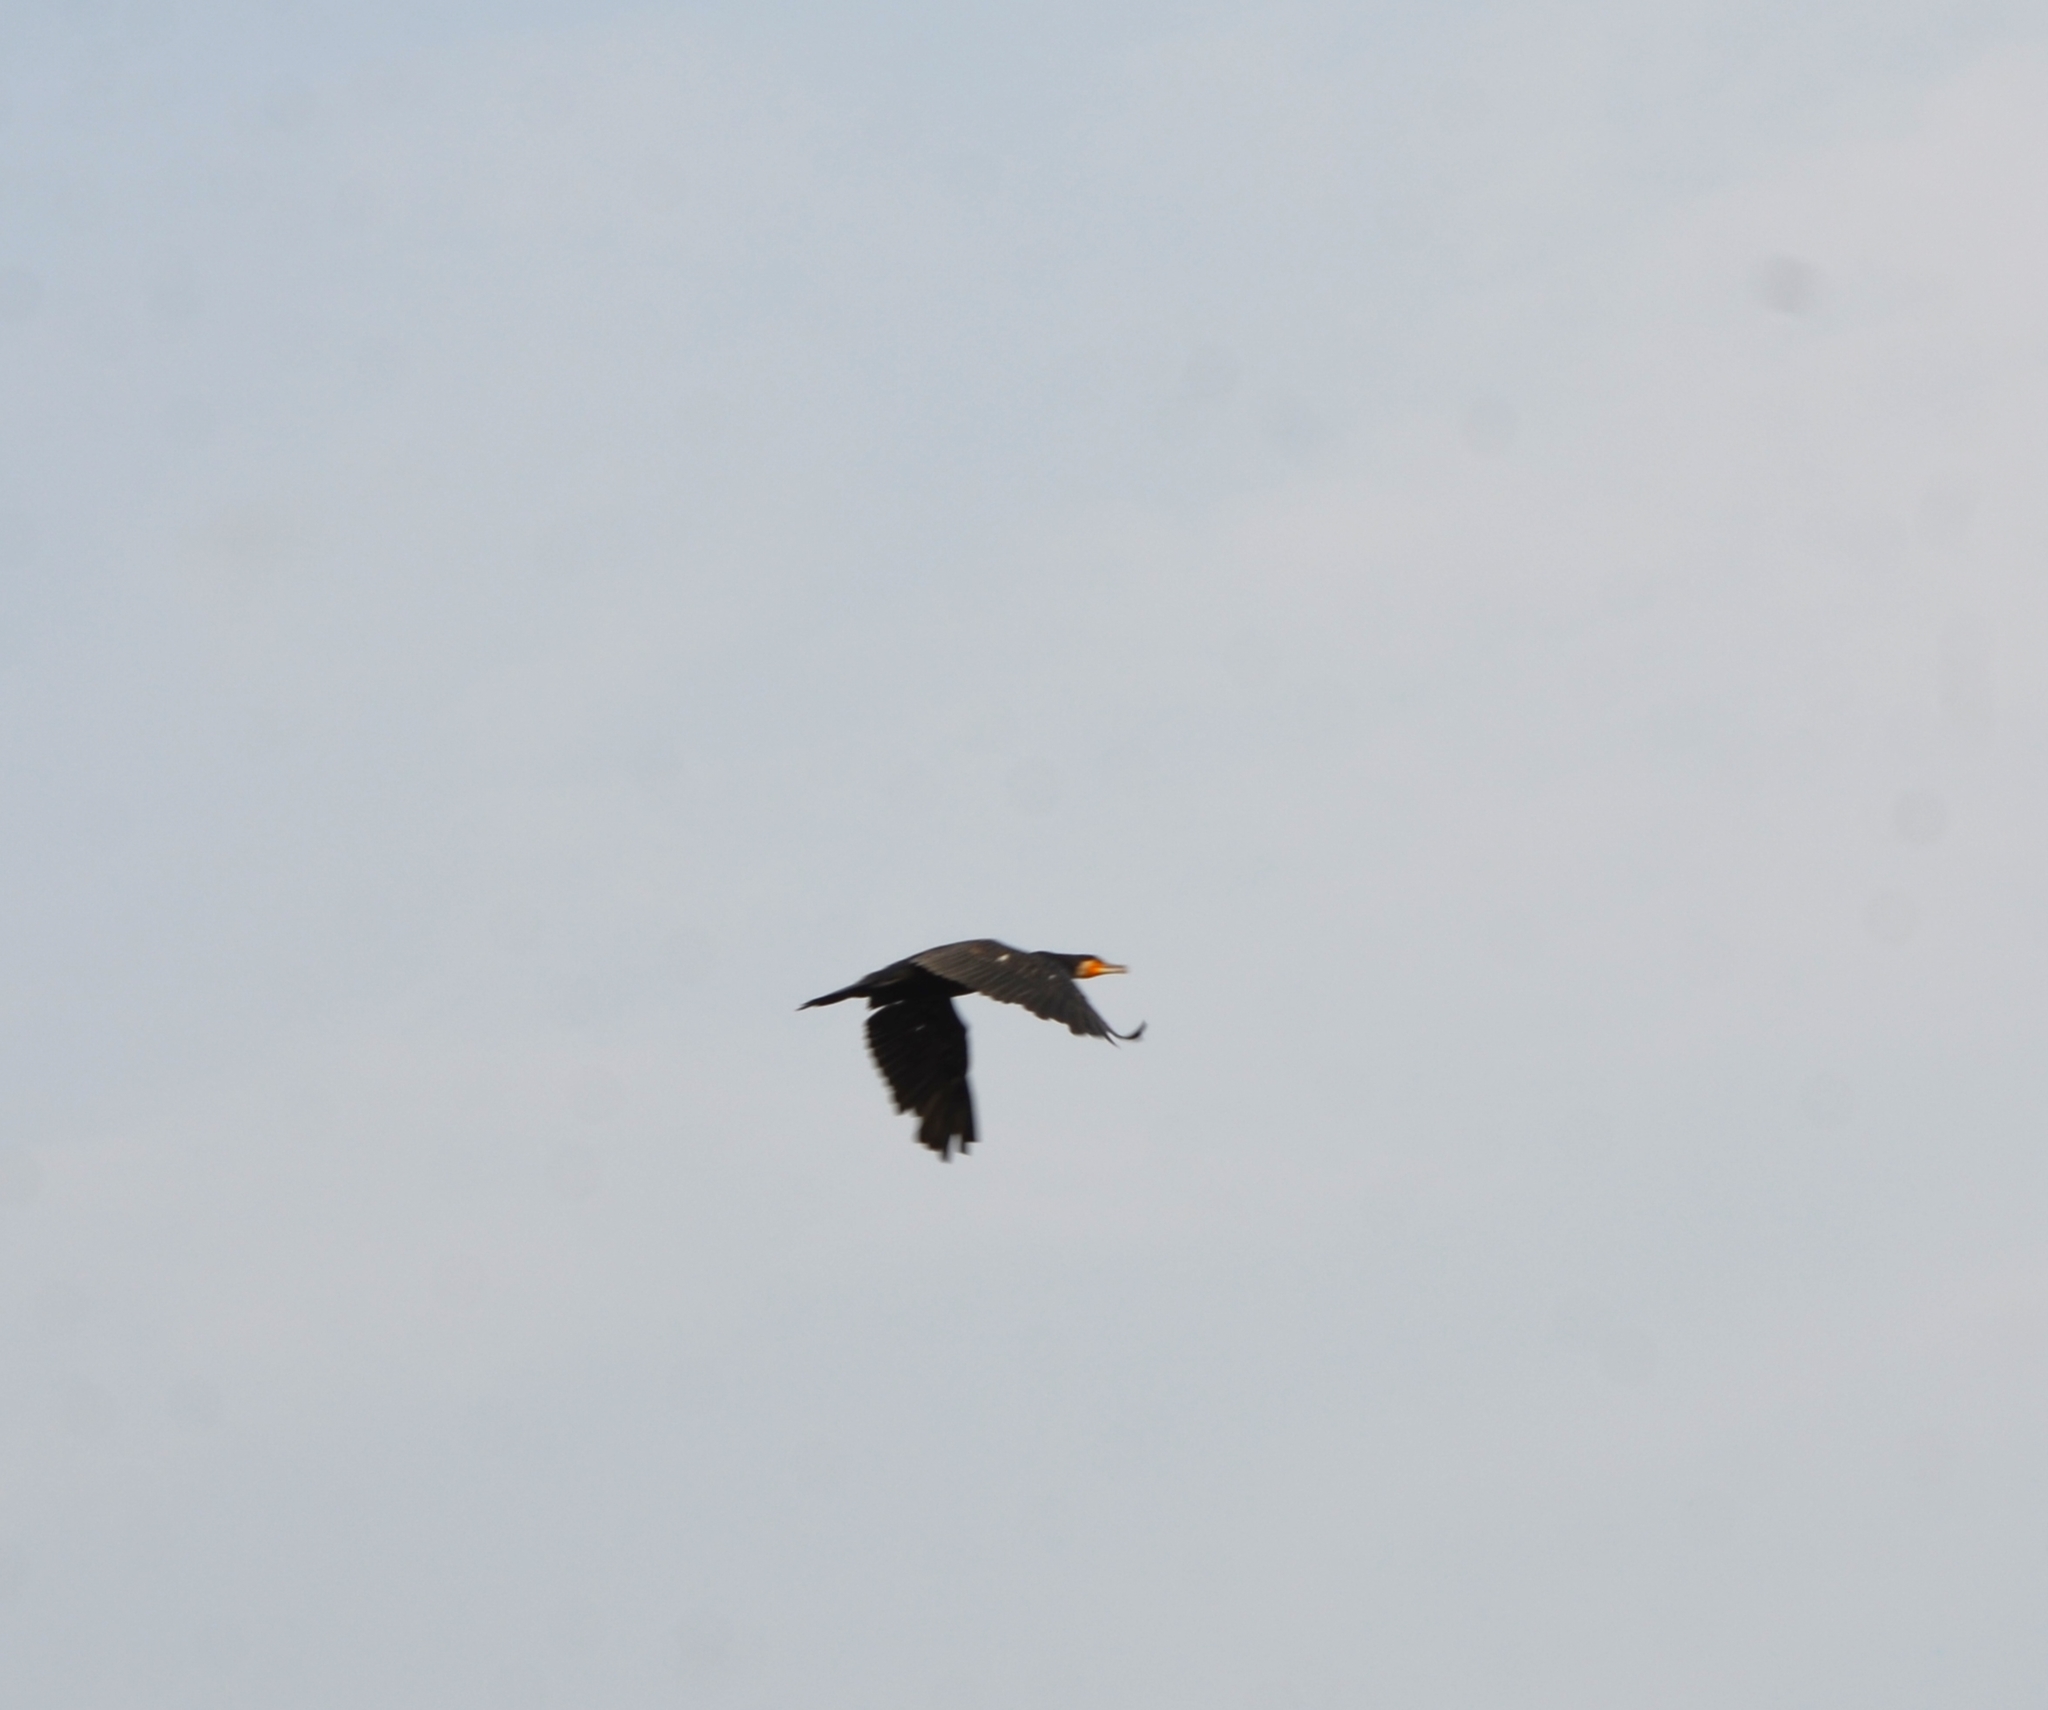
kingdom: Animalia
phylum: Chordata
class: Aves
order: Suliformes
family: Phalacrocoracidae
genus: Phalacrocorax
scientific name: Phalacrocorax carbo
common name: Great cormorant
